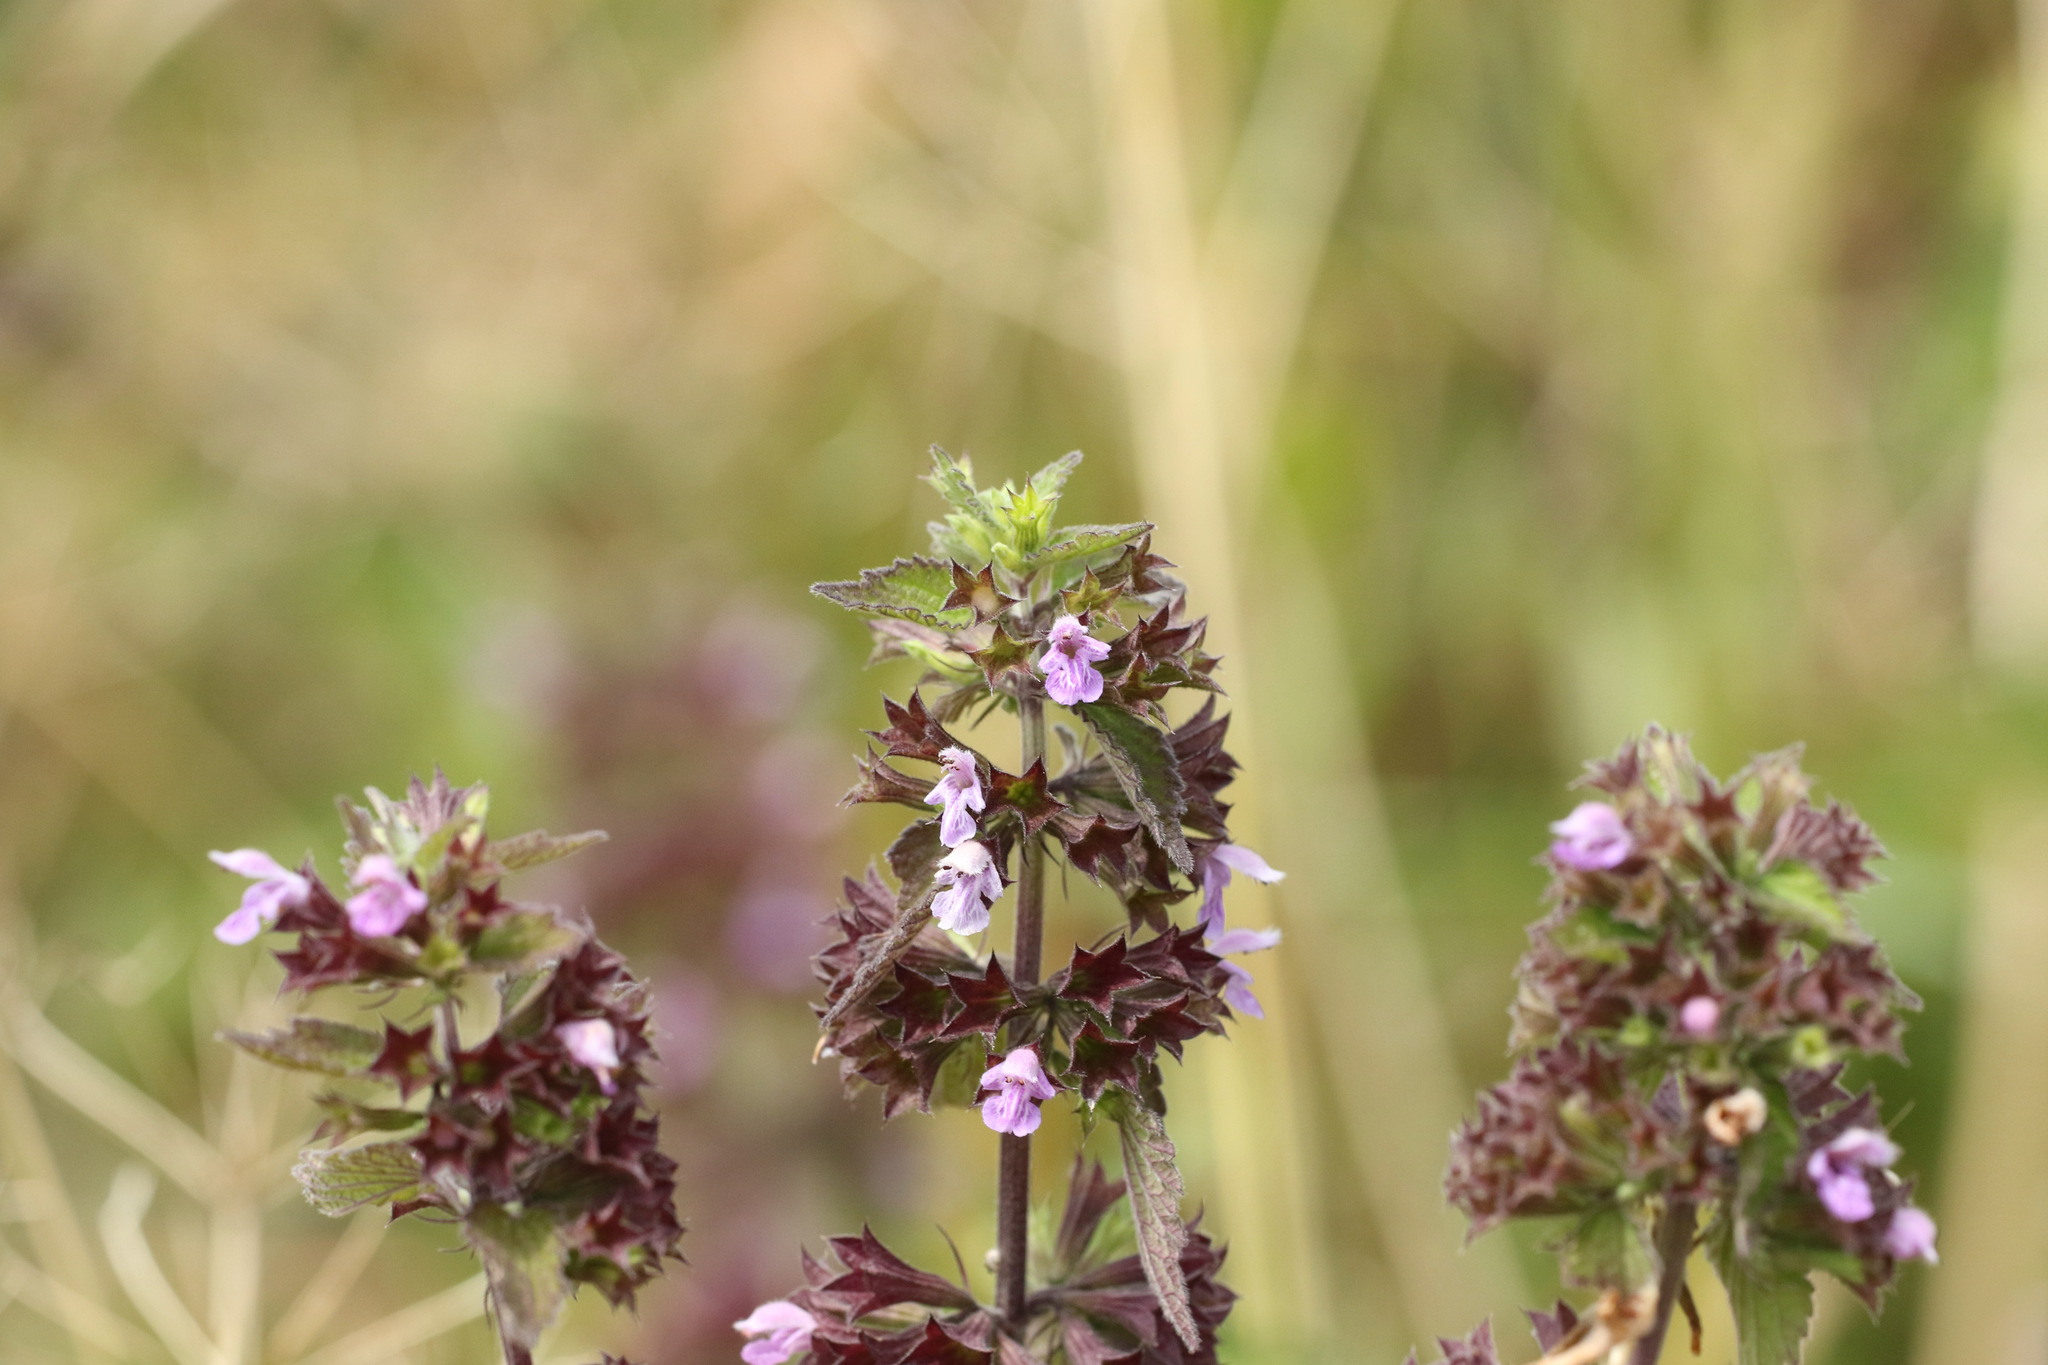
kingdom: Plantae
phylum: Tracheophyta
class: Magnoliopsida
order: Lamiales
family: Lamiaceae
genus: Ballota
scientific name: Ballota nigra
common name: Black horehound
